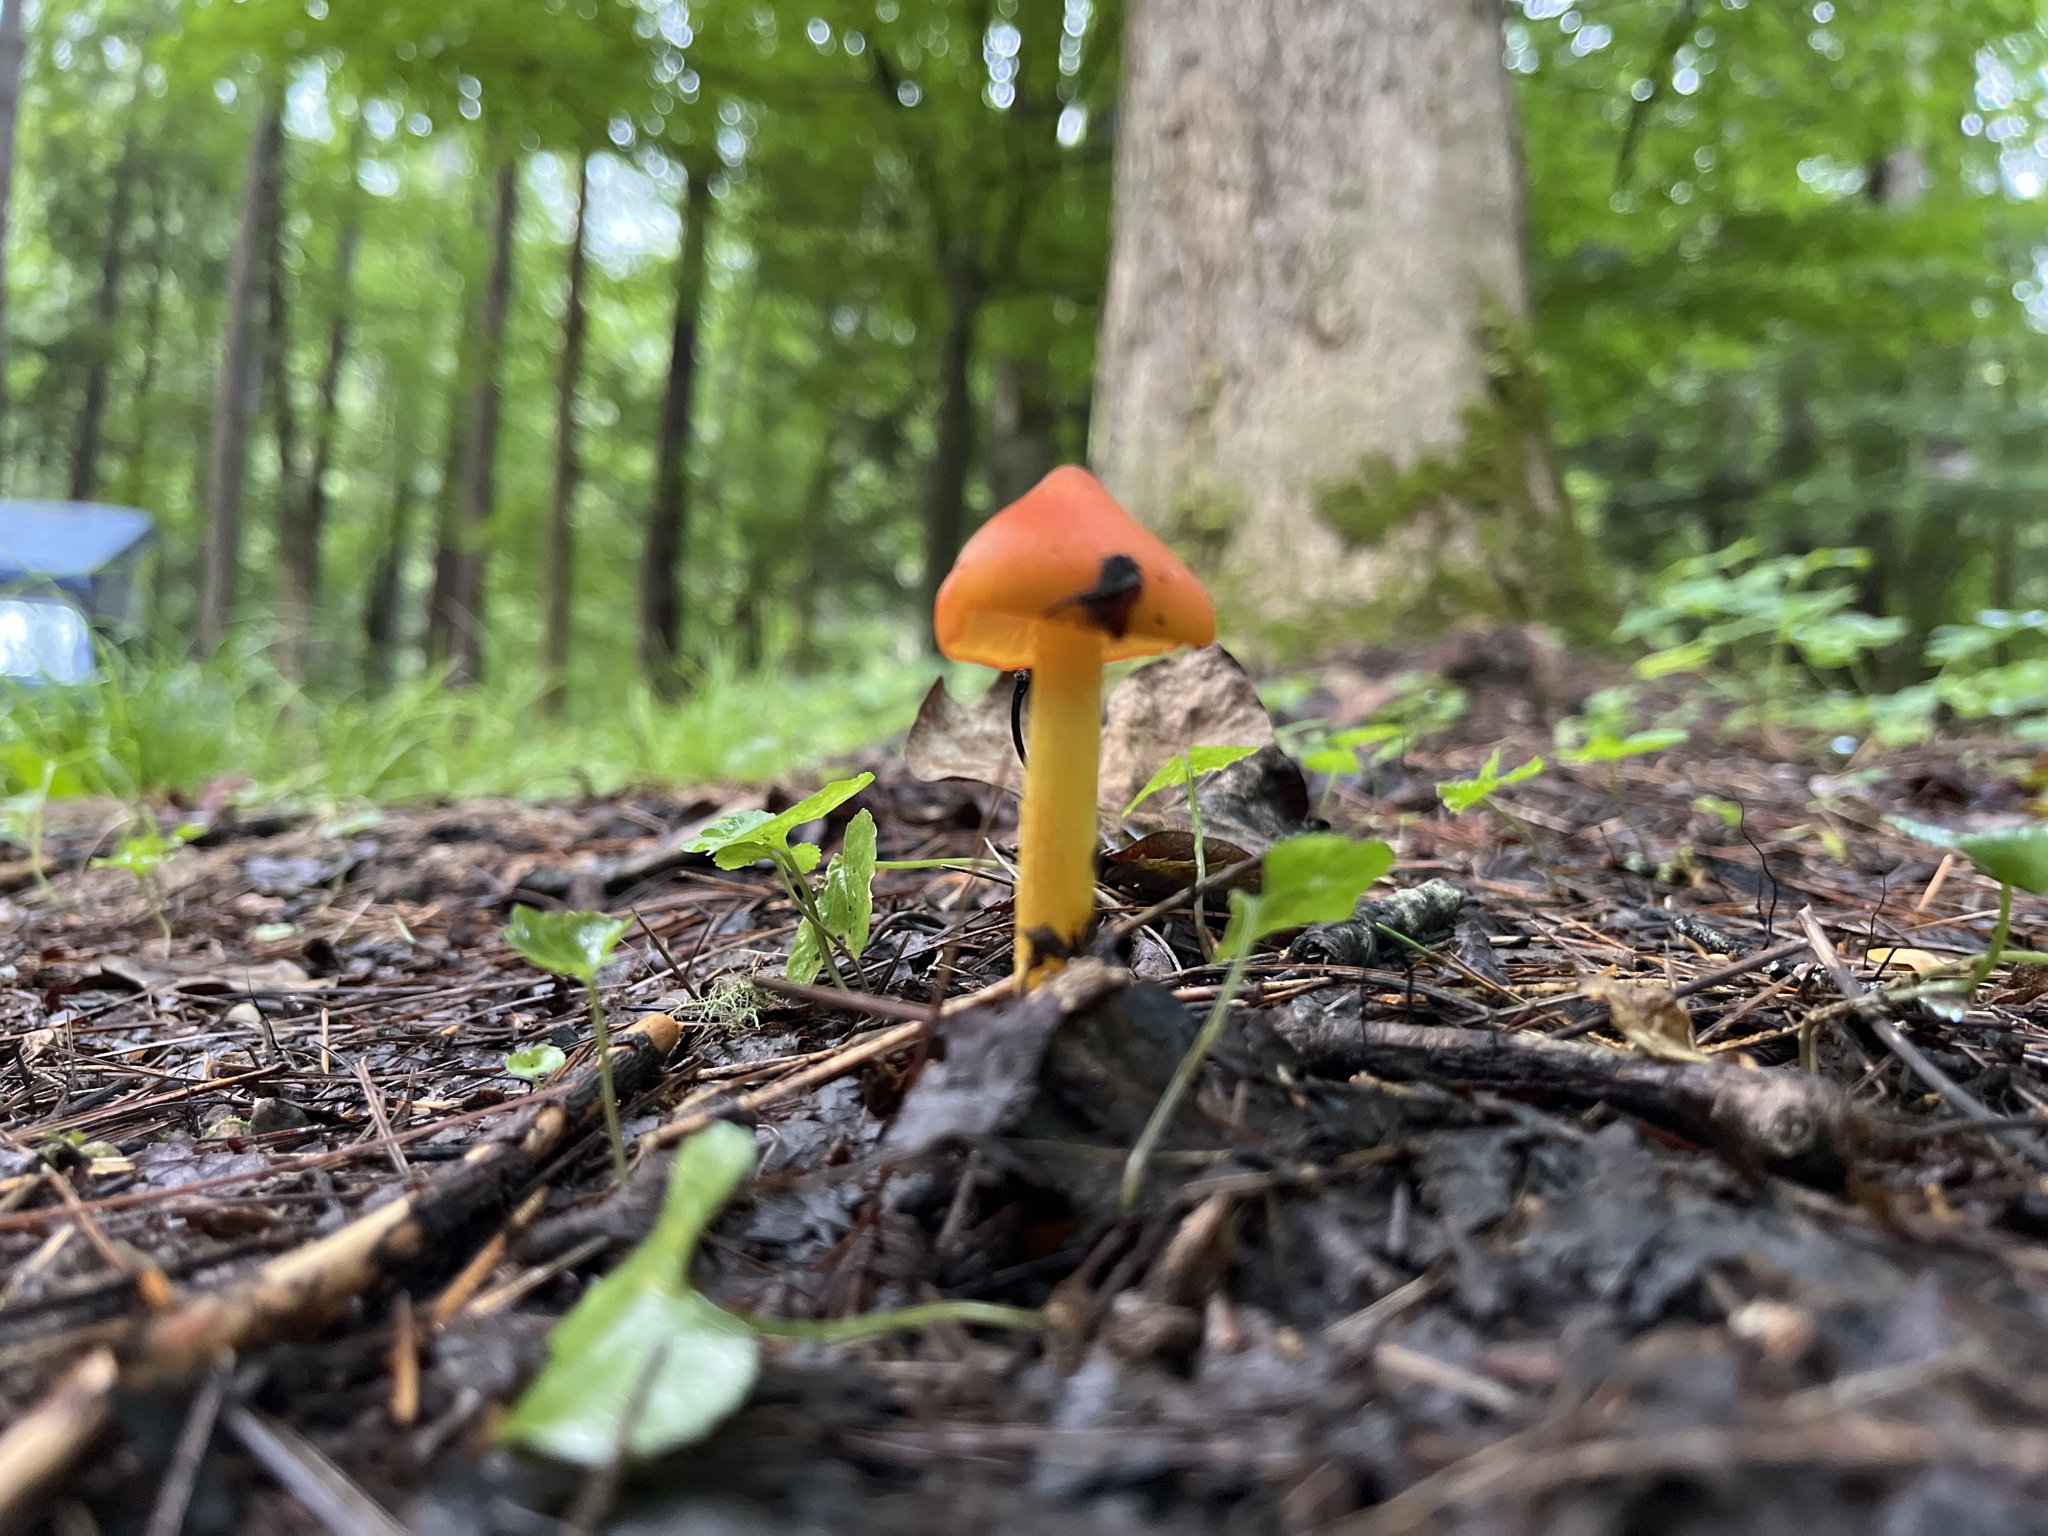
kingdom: Fungi
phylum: Basidiomycota
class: Agaricomycetes
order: Agaricales
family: Hygrophoraceae
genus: Hygrocybe
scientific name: Hygrocybe acutoconica
